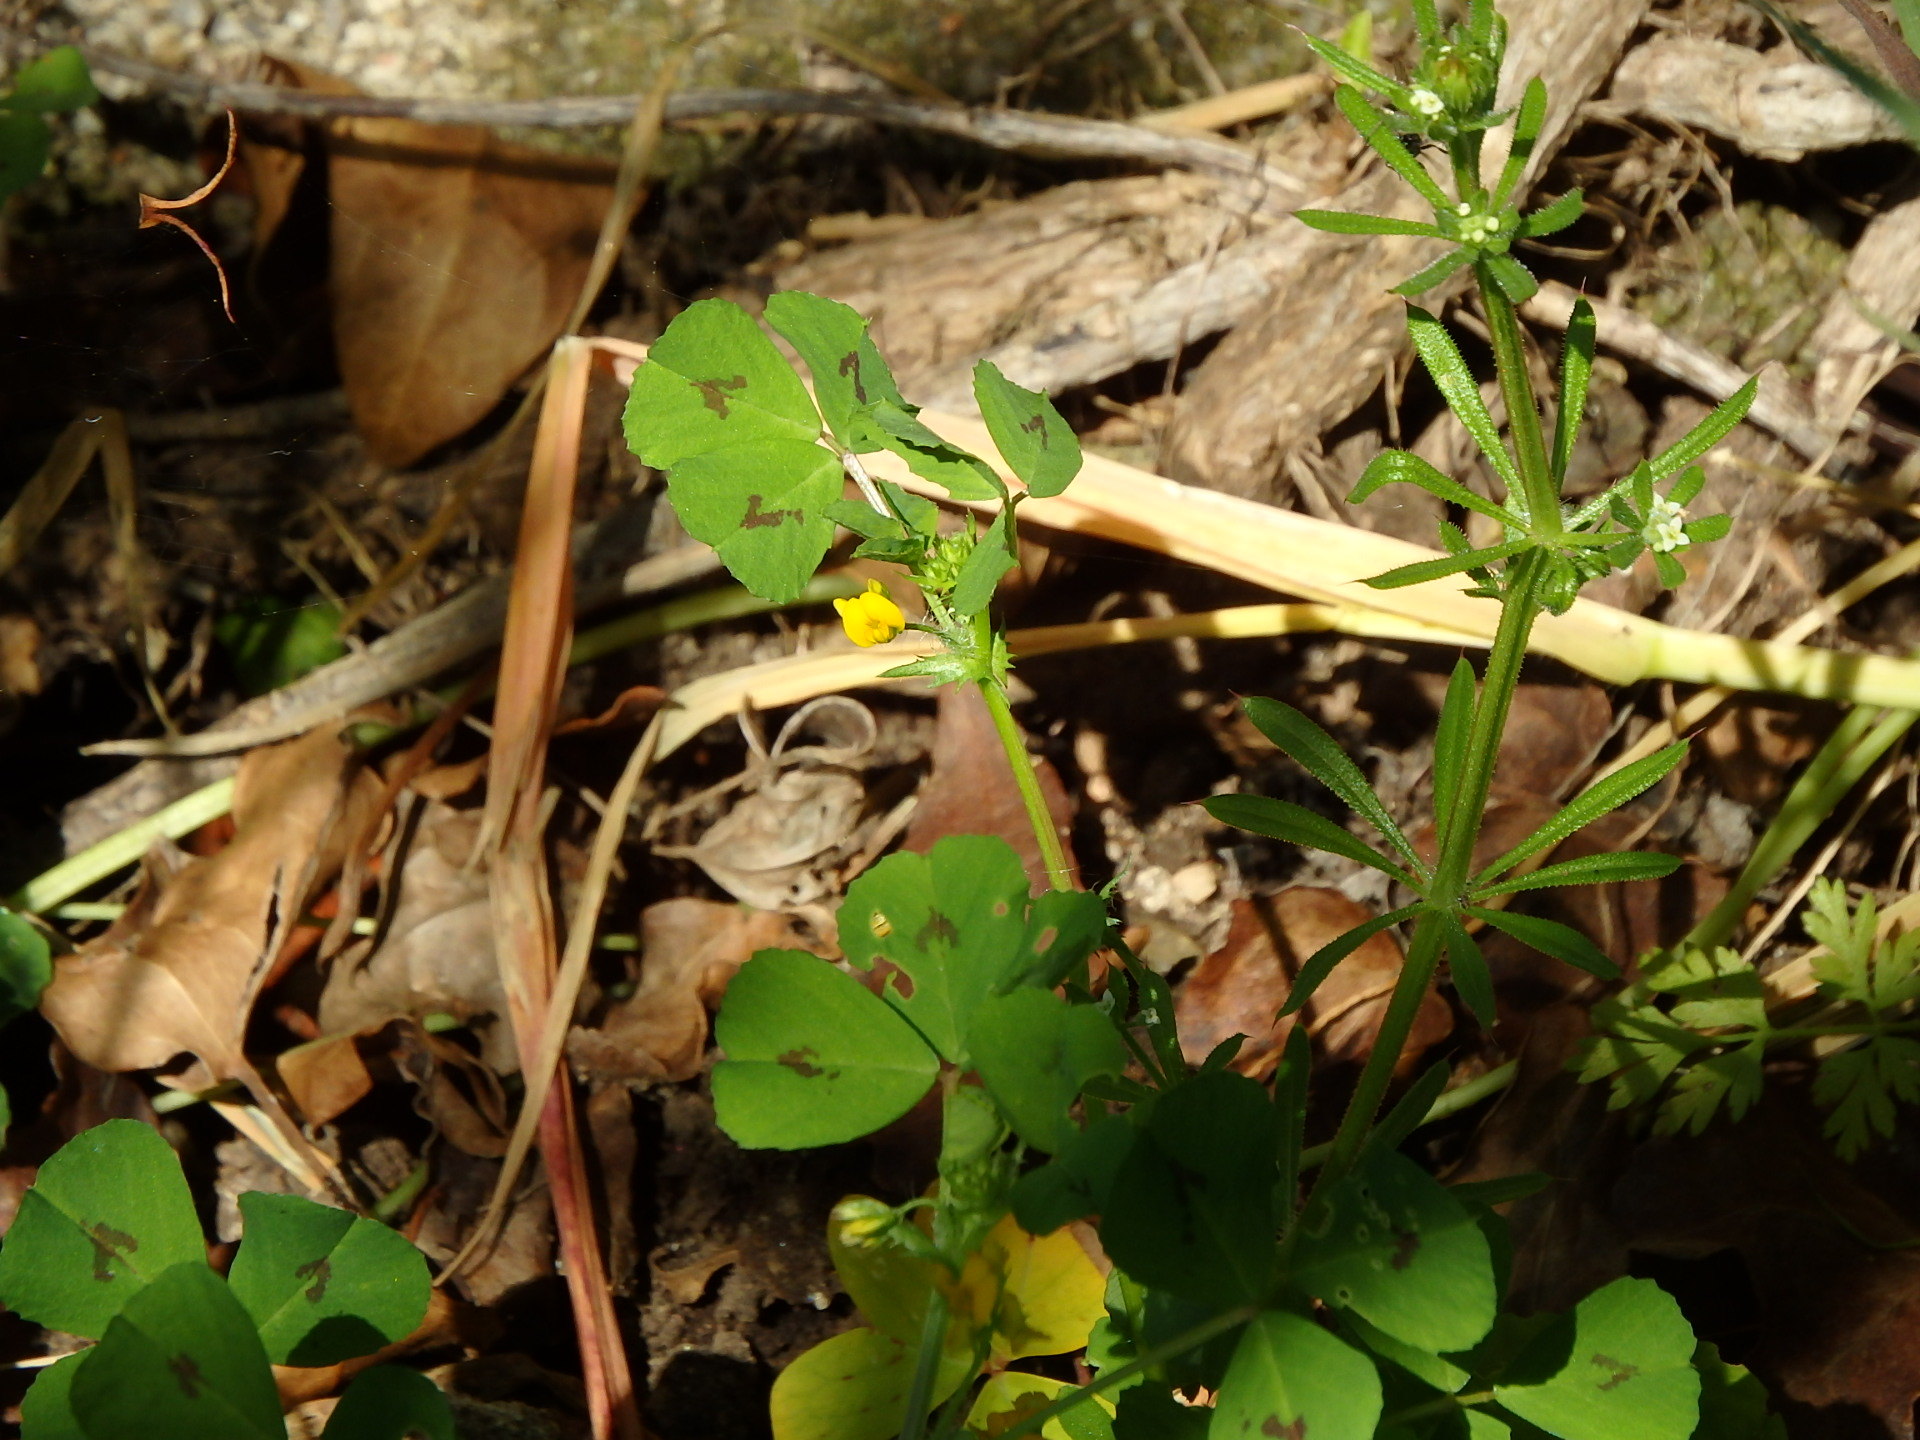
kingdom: Plantae
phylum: Tracheophyta
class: Magnoliopsida
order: Fabales
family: Fabaceae
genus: Medicago
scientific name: Medicago arabica
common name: Spotted medick
